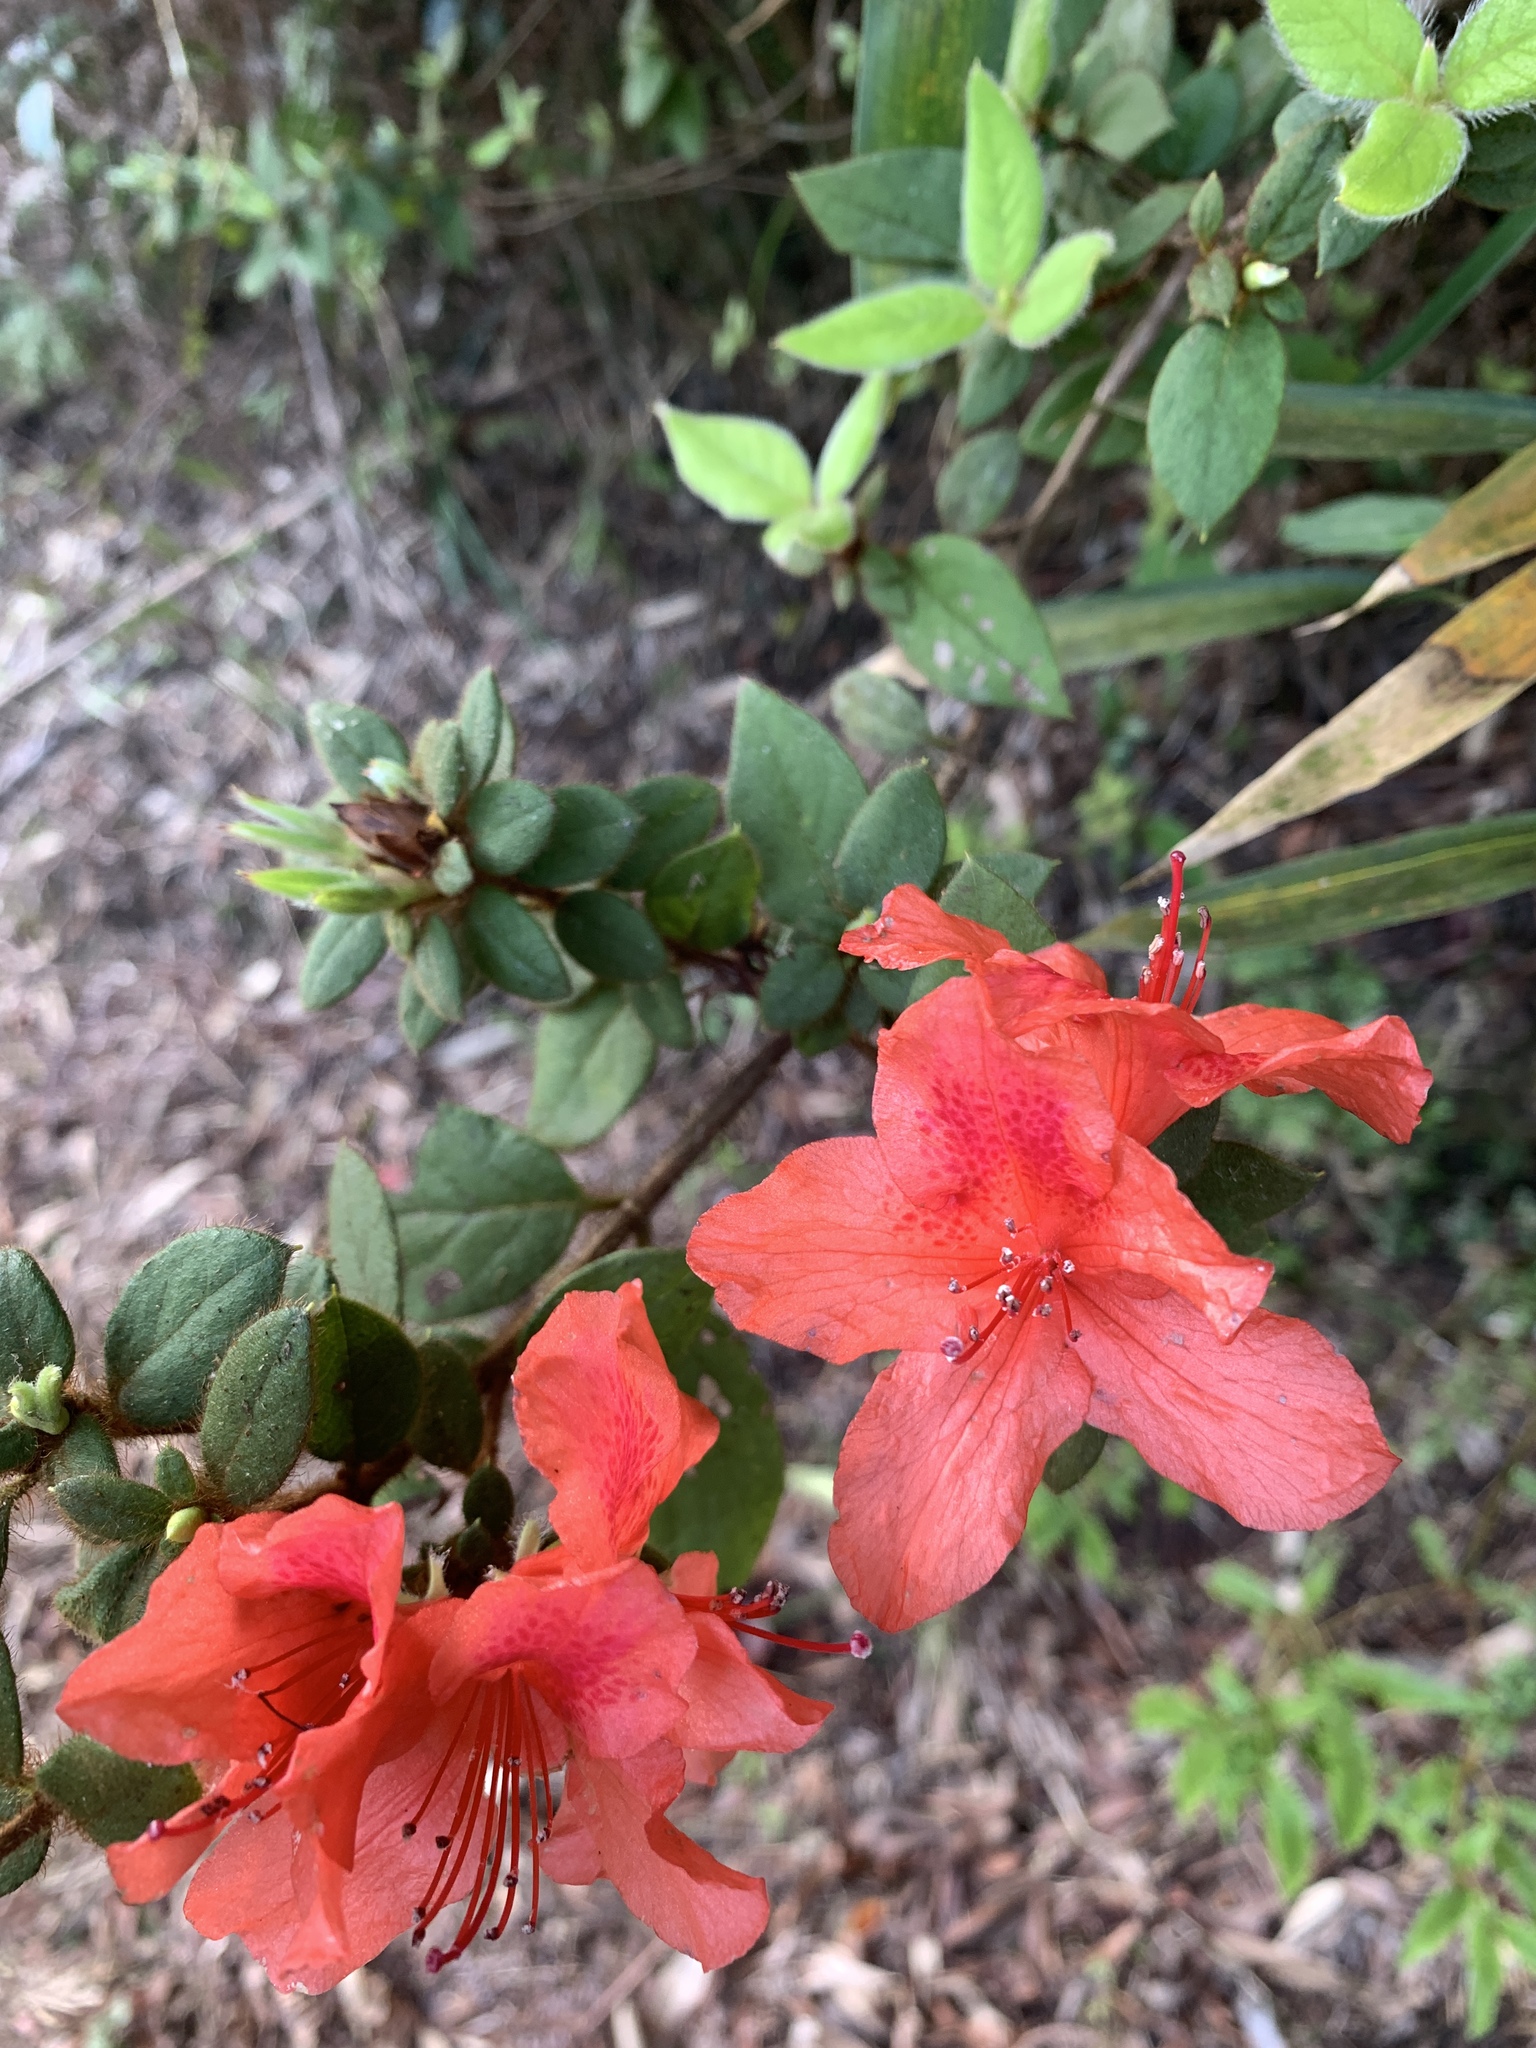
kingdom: Plantae
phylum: Tracheophyta
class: Magnoliopsida
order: Ericales
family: Ericaceae
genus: Rhododendron
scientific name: Rhododendron oldhamii
